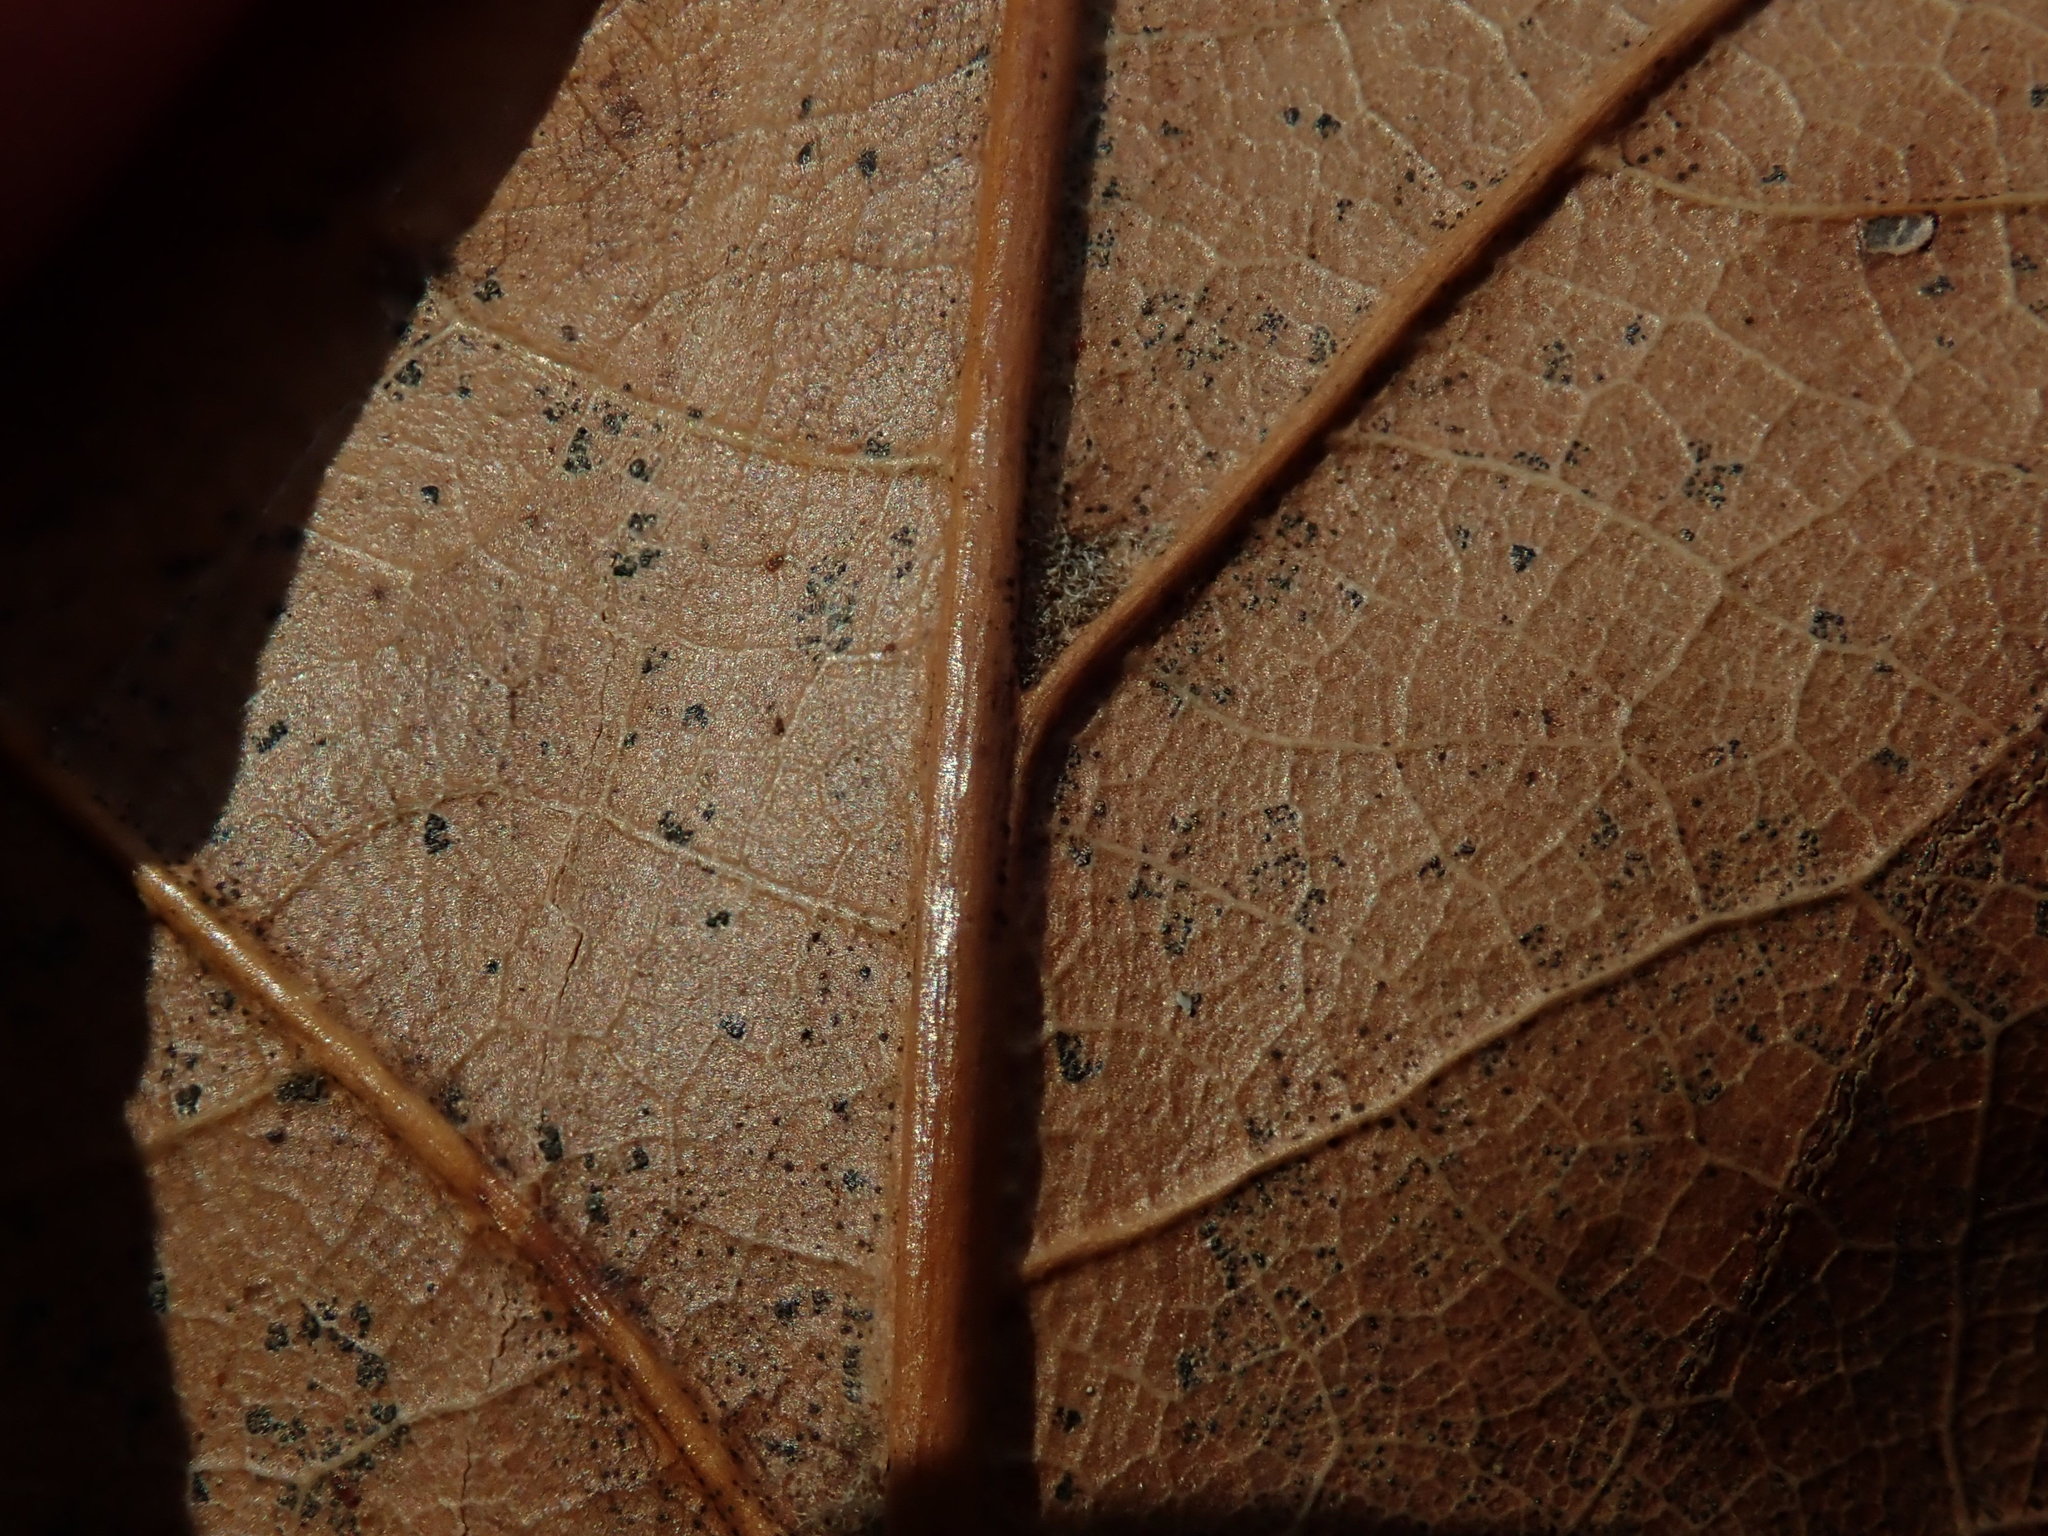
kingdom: Plantae
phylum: Tracheophyta
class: Magnoliopsida
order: Fagales
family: Fagaceae
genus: Quercus
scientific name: Quercus rubra
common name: Red oak
